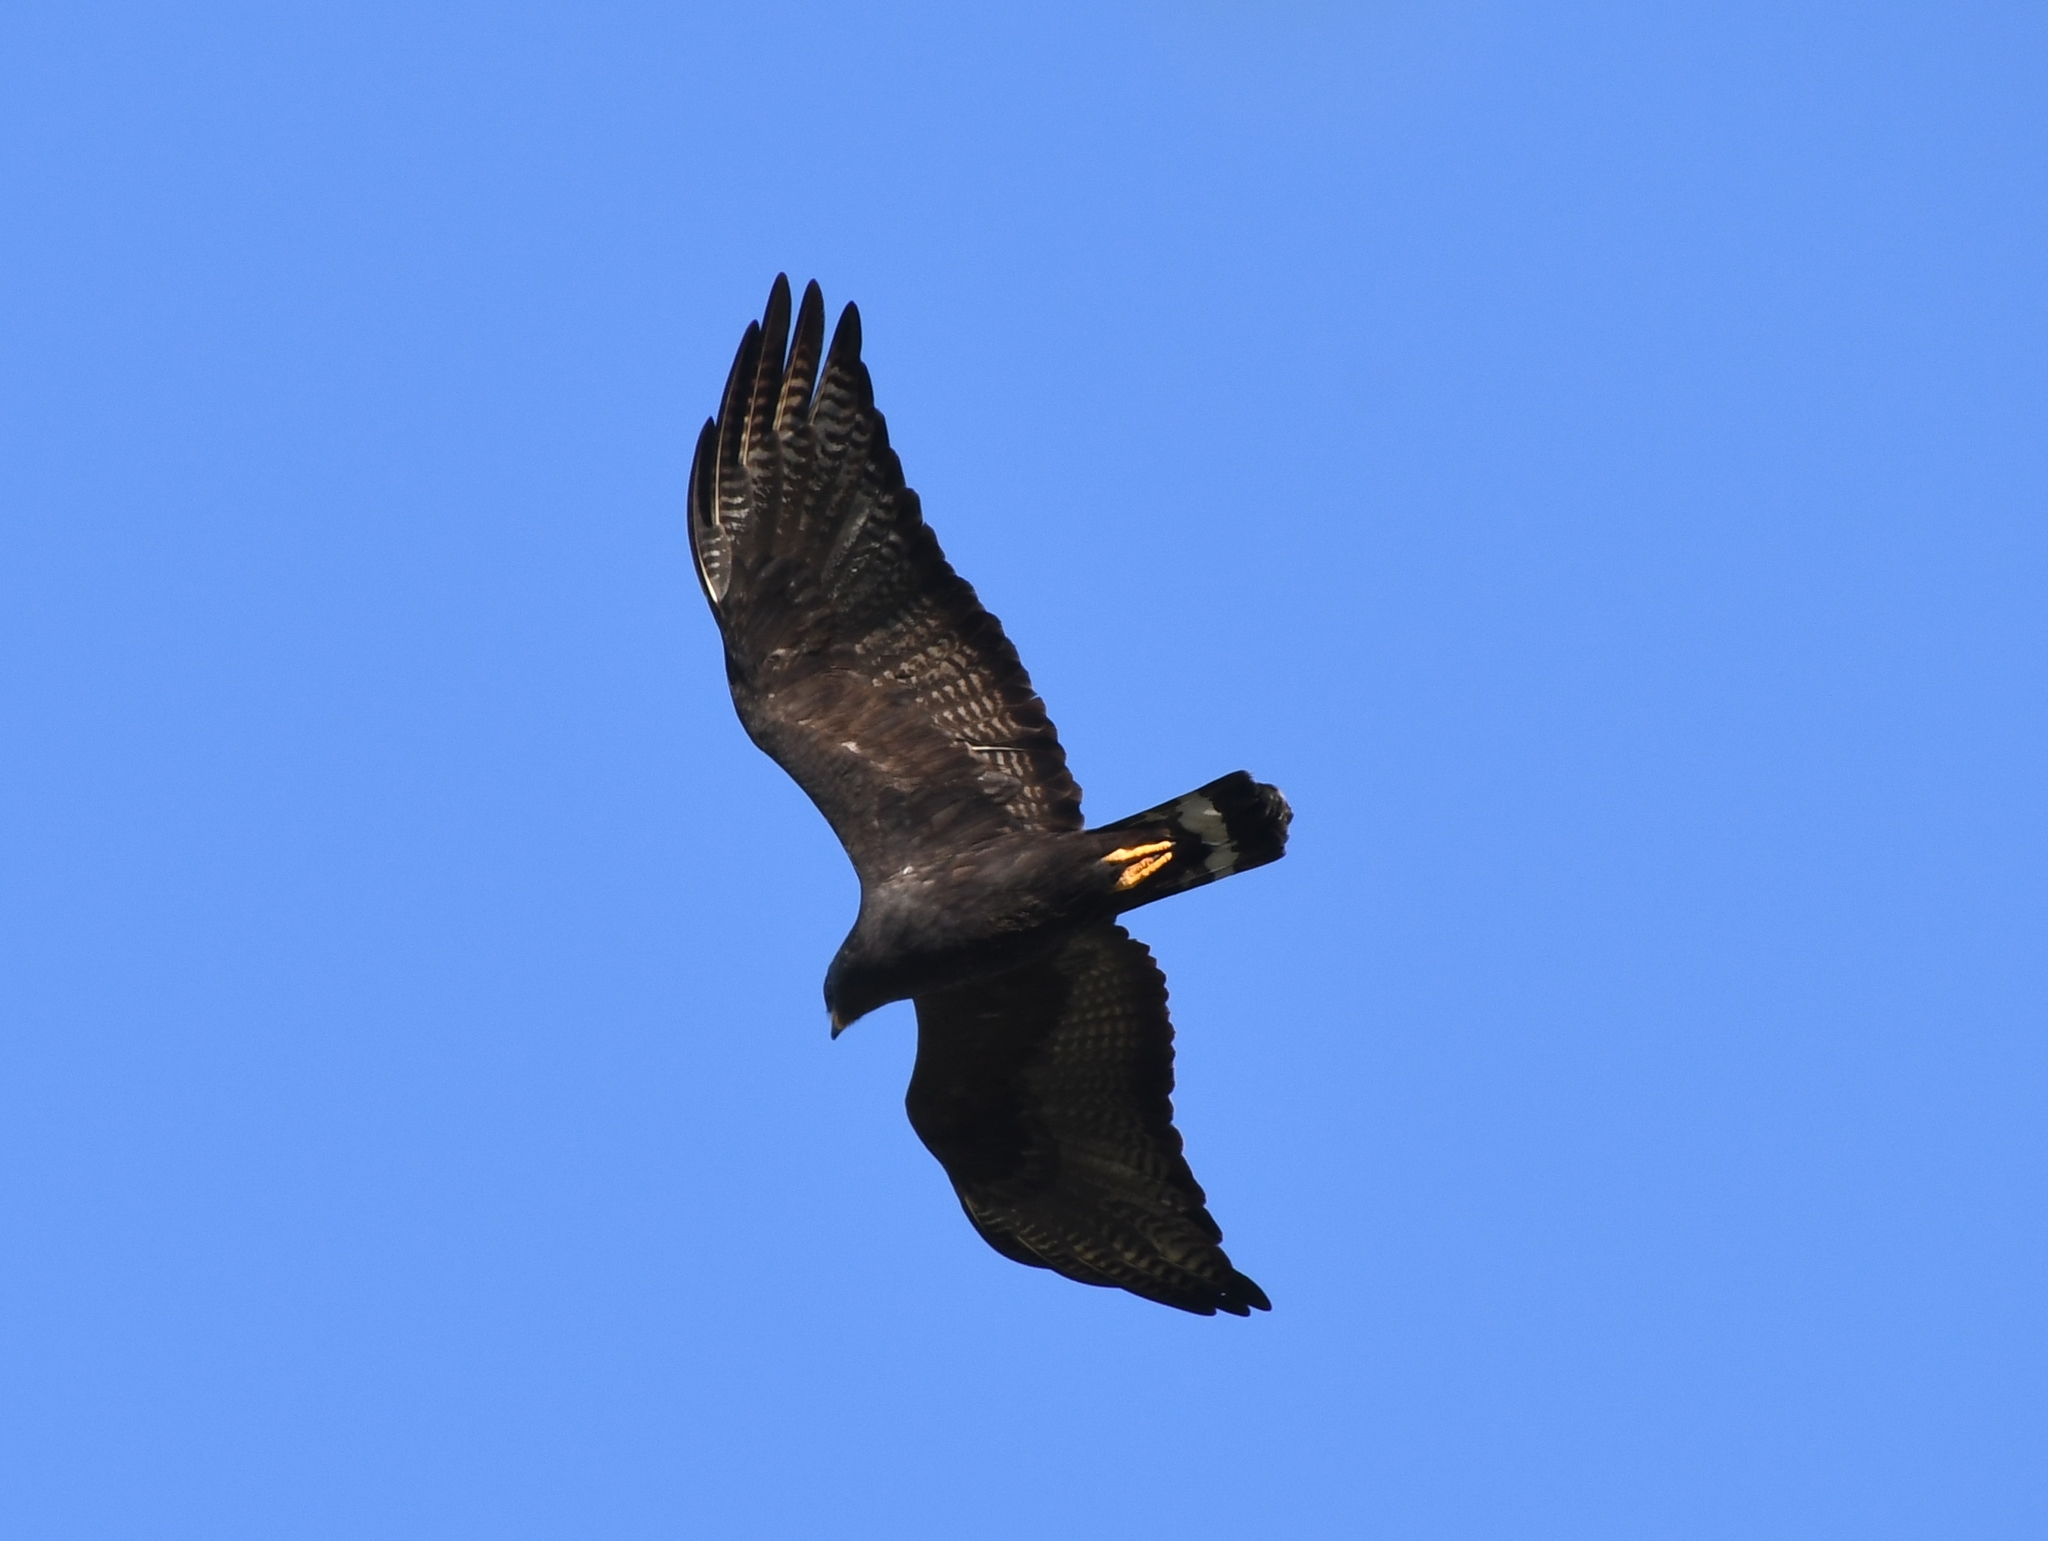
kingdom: Animalia
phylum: Chordata
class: Aves
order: Accipitriformes
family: Accipitridae
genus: Buteo
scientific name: Buteo albonotatus
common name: Zone-tailed hawk
